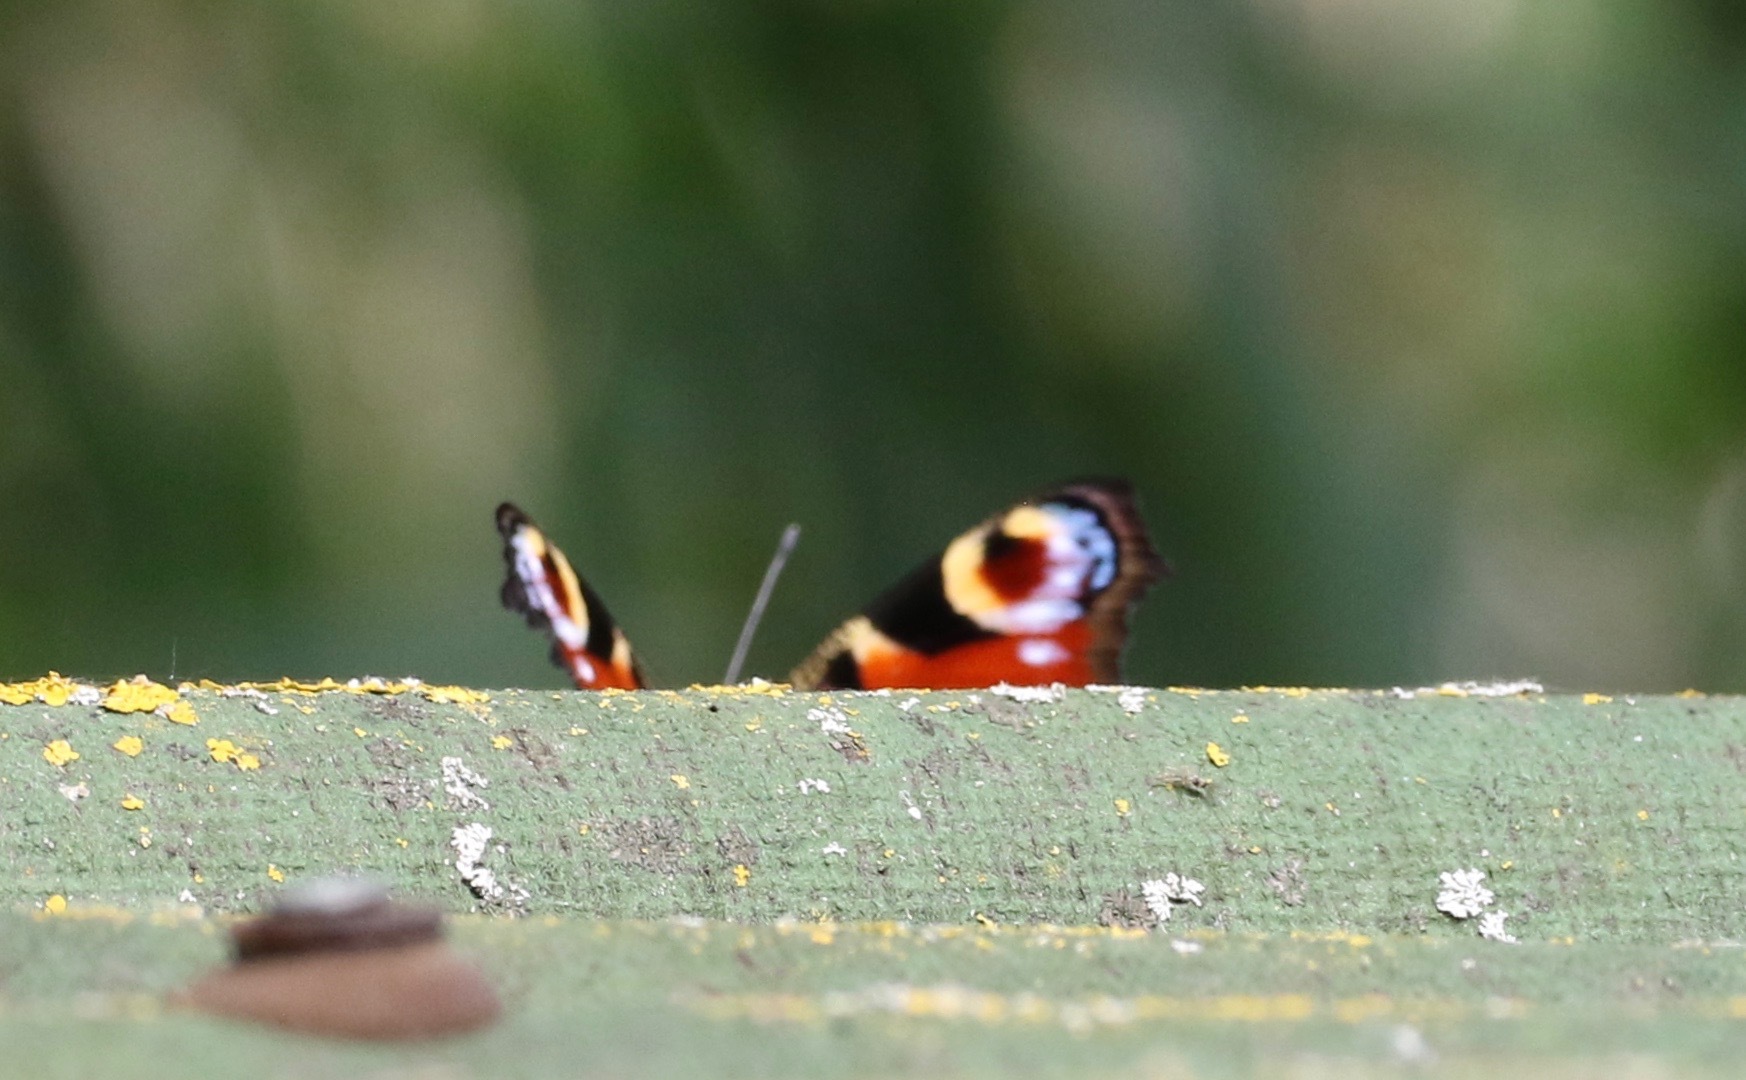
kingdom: Animalia
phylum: Arthropoda
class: Insecta
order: Lepidoptera
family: Nymphalidae
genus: Aglais
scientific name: Aglais io
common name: Peacock
